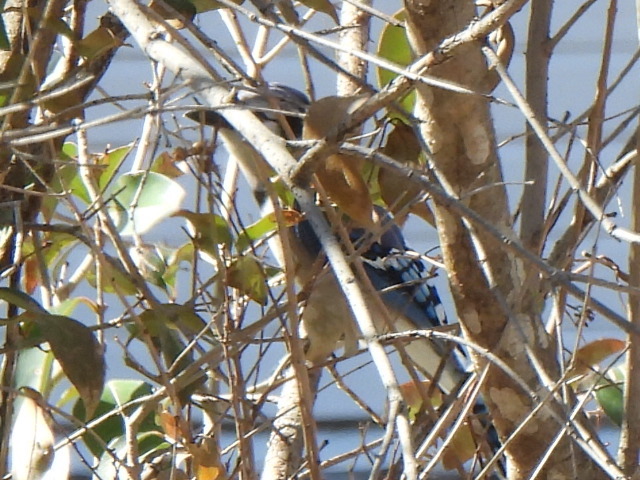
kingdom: Animalia
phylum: Chordata
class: Aves
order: Passeriformes
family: Corvidae
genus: Cyanocitta
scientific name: Cyanocitta cristata
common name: Blue jay
